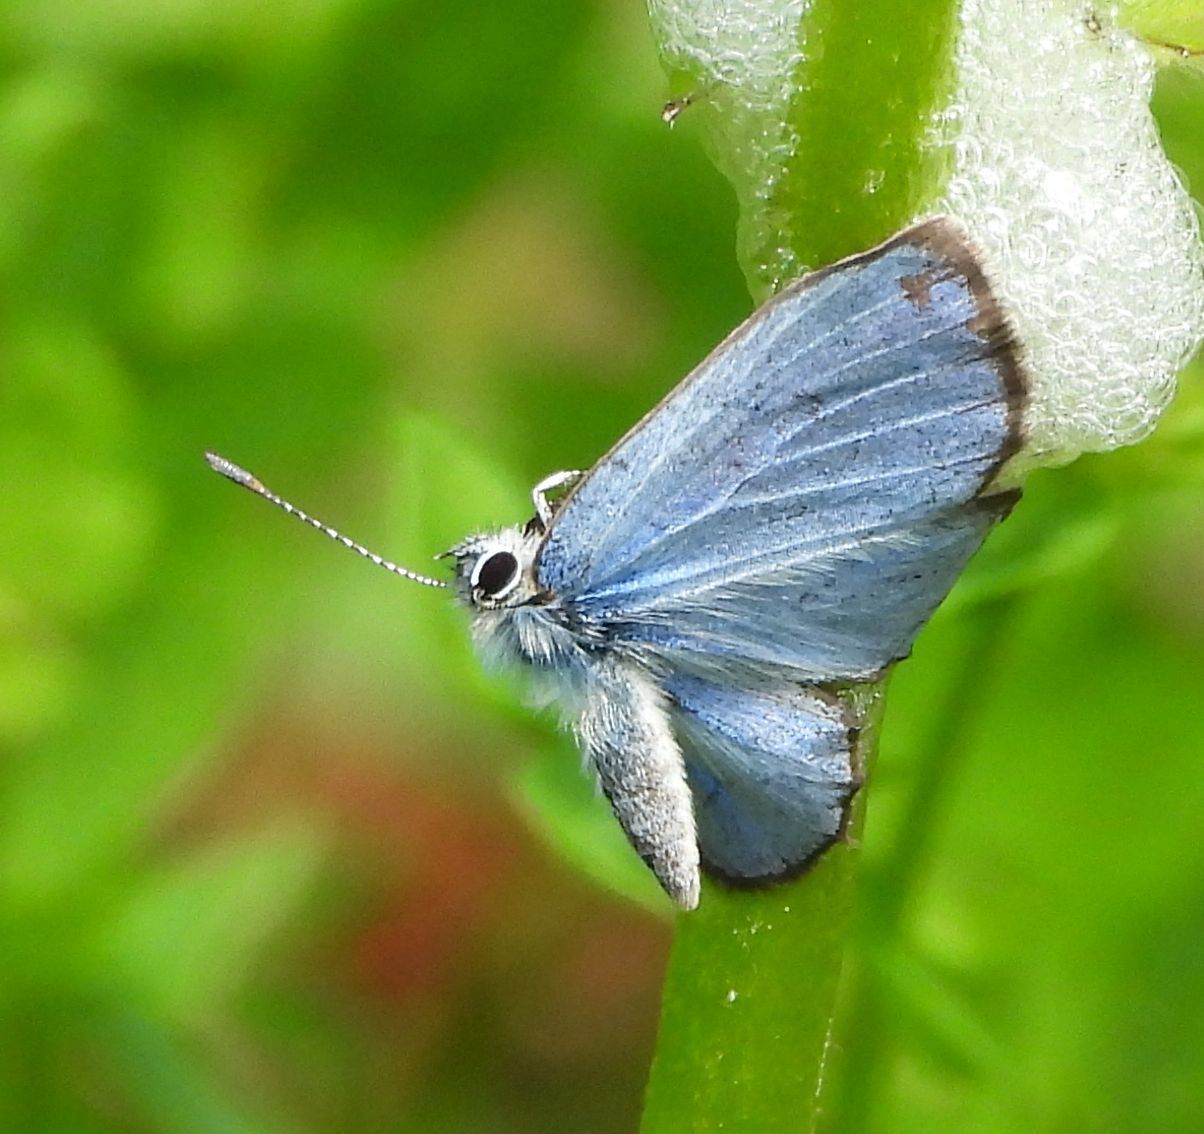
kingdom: Animalia
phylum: Arthropoda
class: Insecta
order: Lepidoptera
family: Lycaenidae
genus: Glaucopsyche
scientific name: Glaucopsyche lygdamus
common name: Silvery blue
